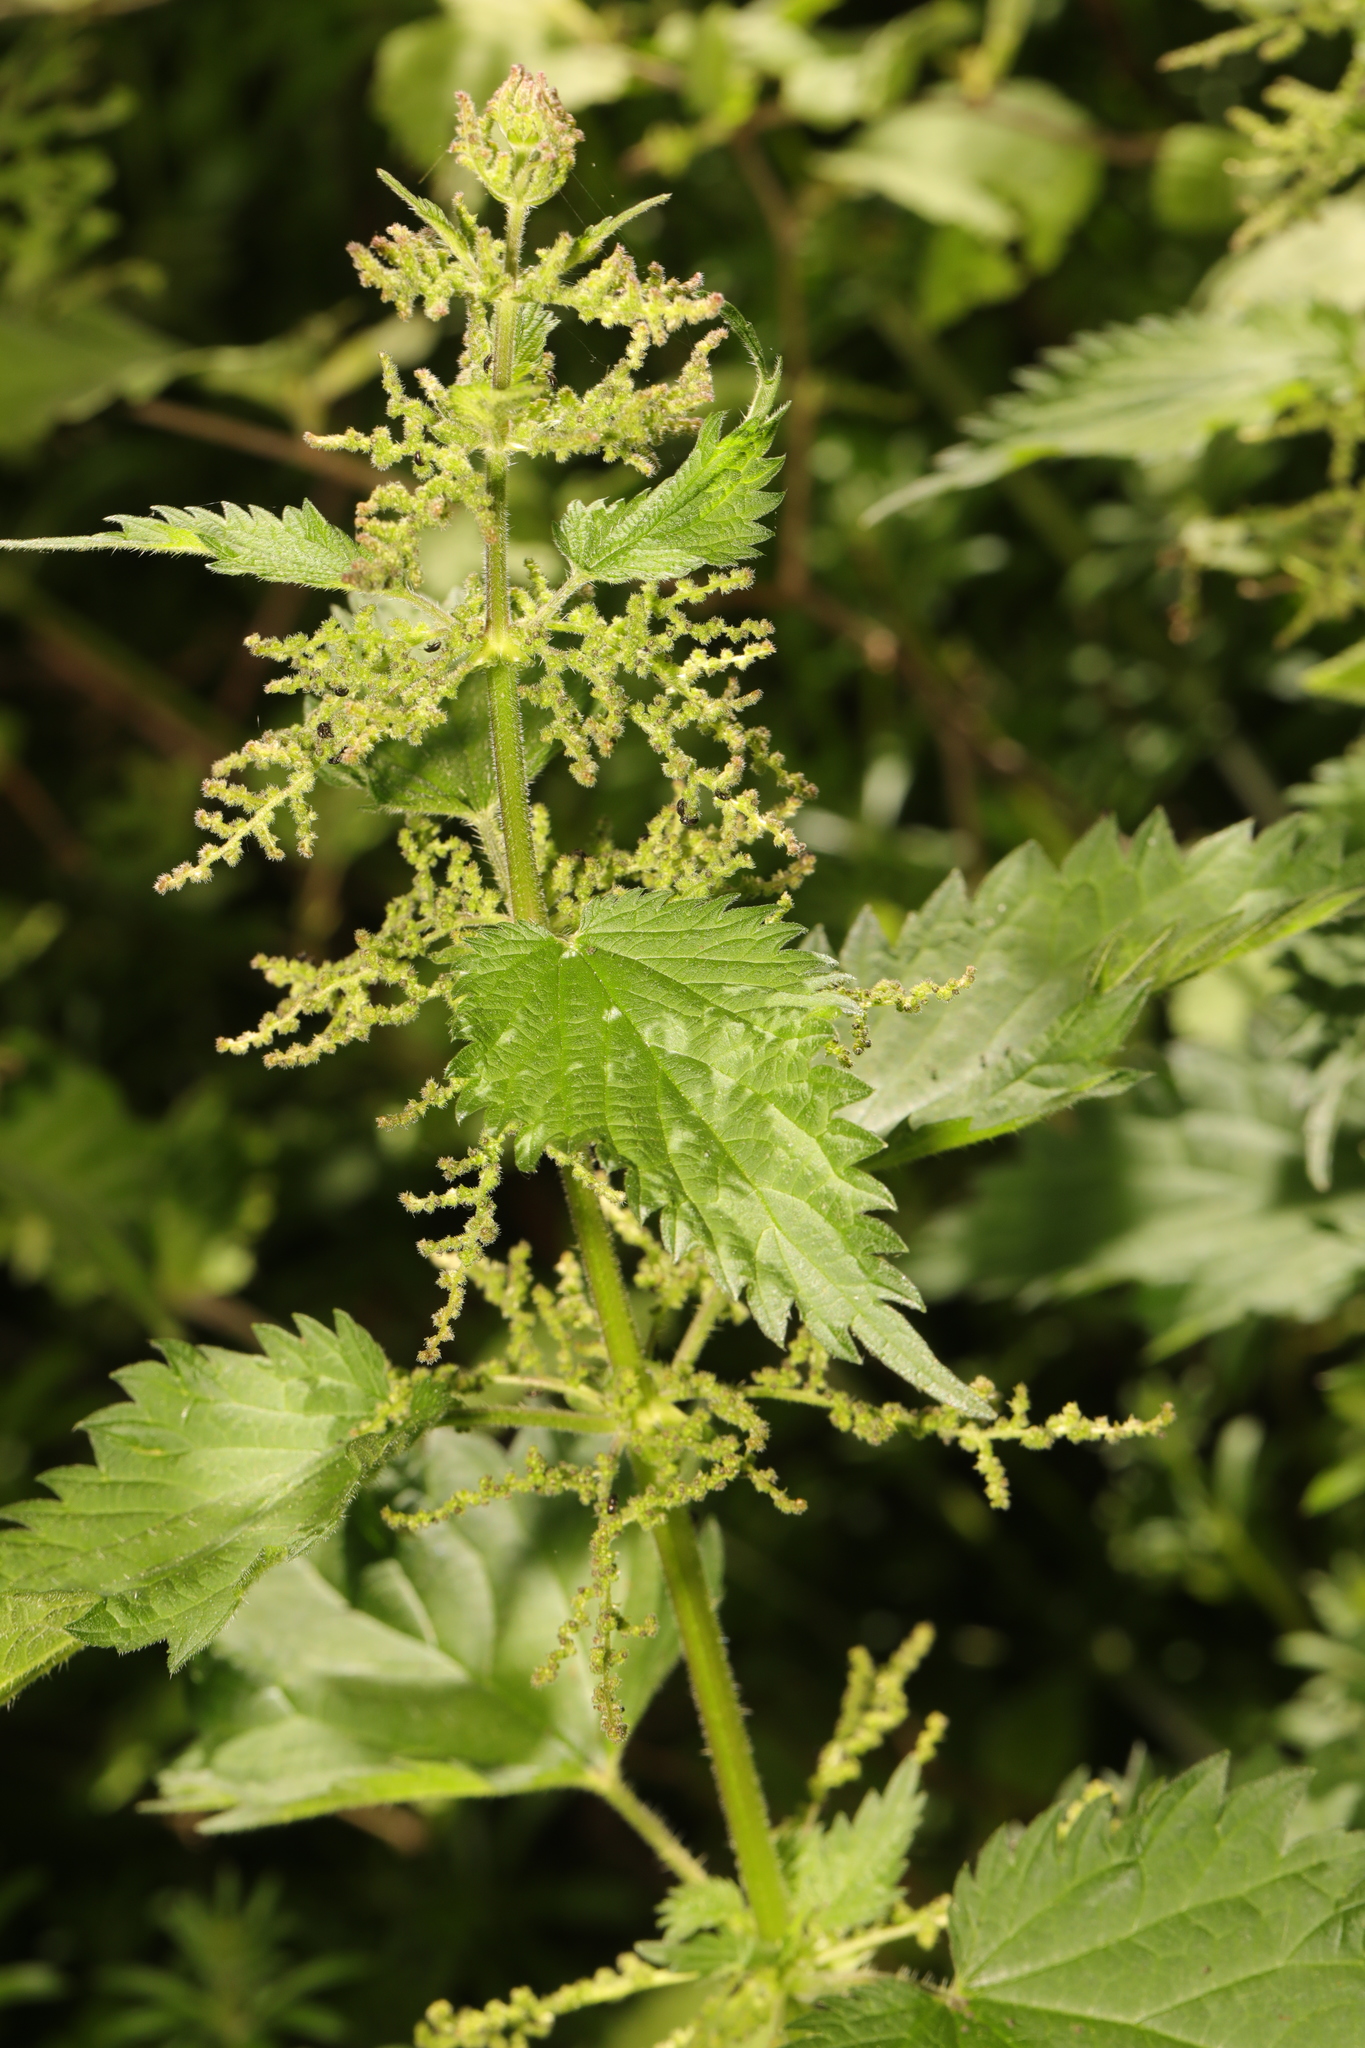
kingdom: Plantae
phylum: Tracheophyta
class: Magnoliopsida
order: Rosales
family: Urticaceae
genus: Urtica
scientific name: Urtica dioica
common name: Common nettle
